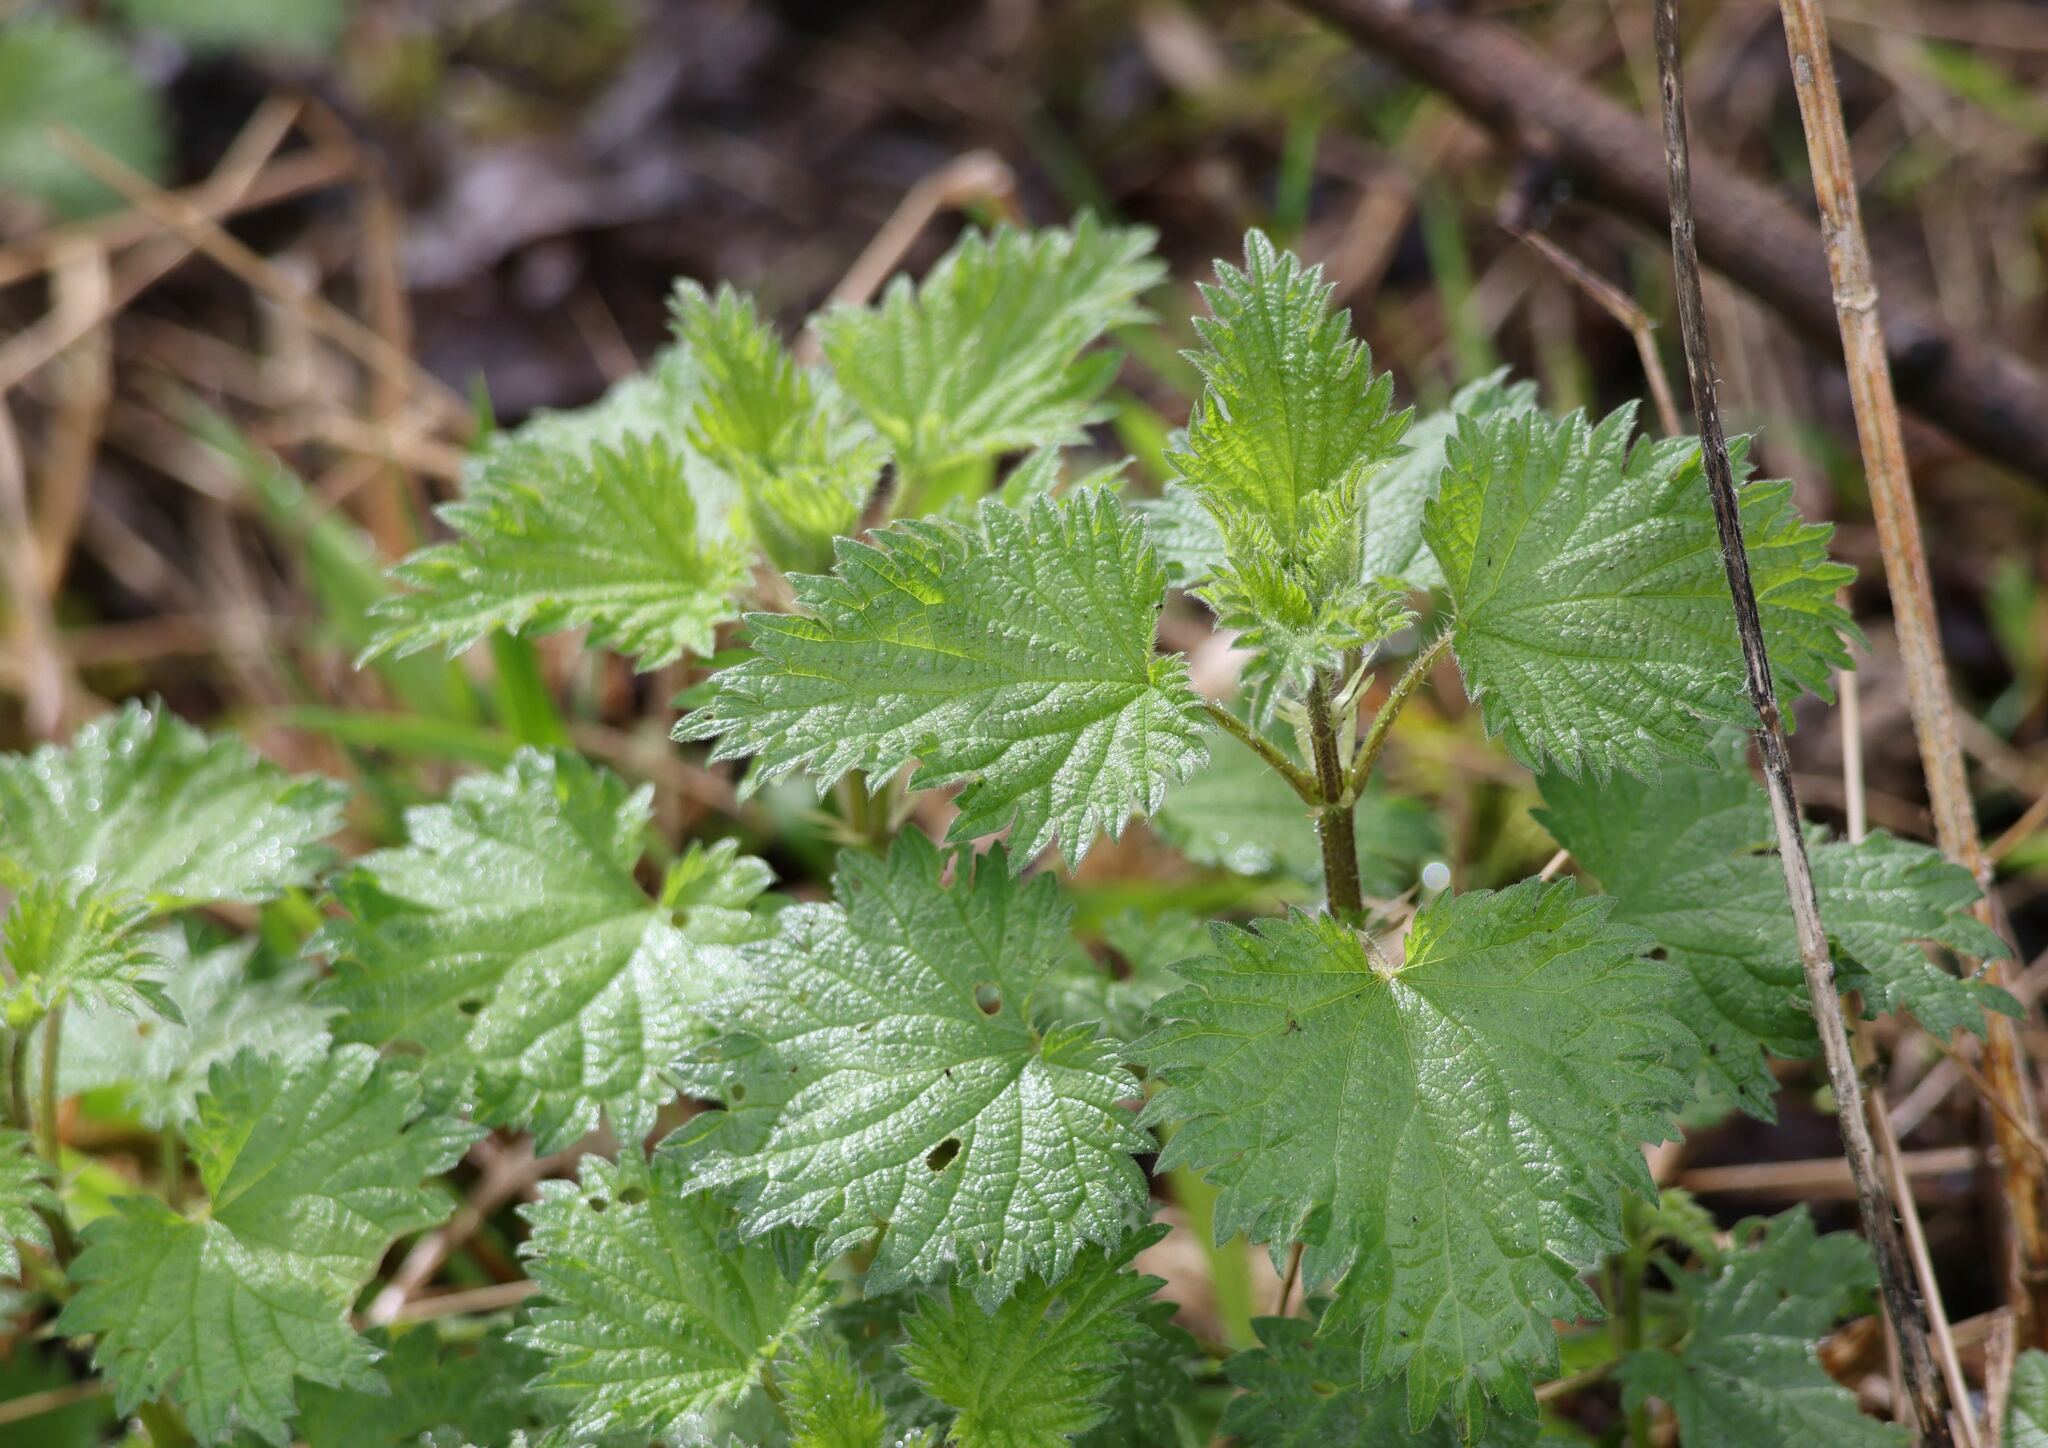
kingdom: Plantae
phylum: Tracheophyta
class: Magnoliopsida
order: Rosales
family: Urticaceae
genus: Urtica
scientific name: Urtica dioica
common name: Common nettle
